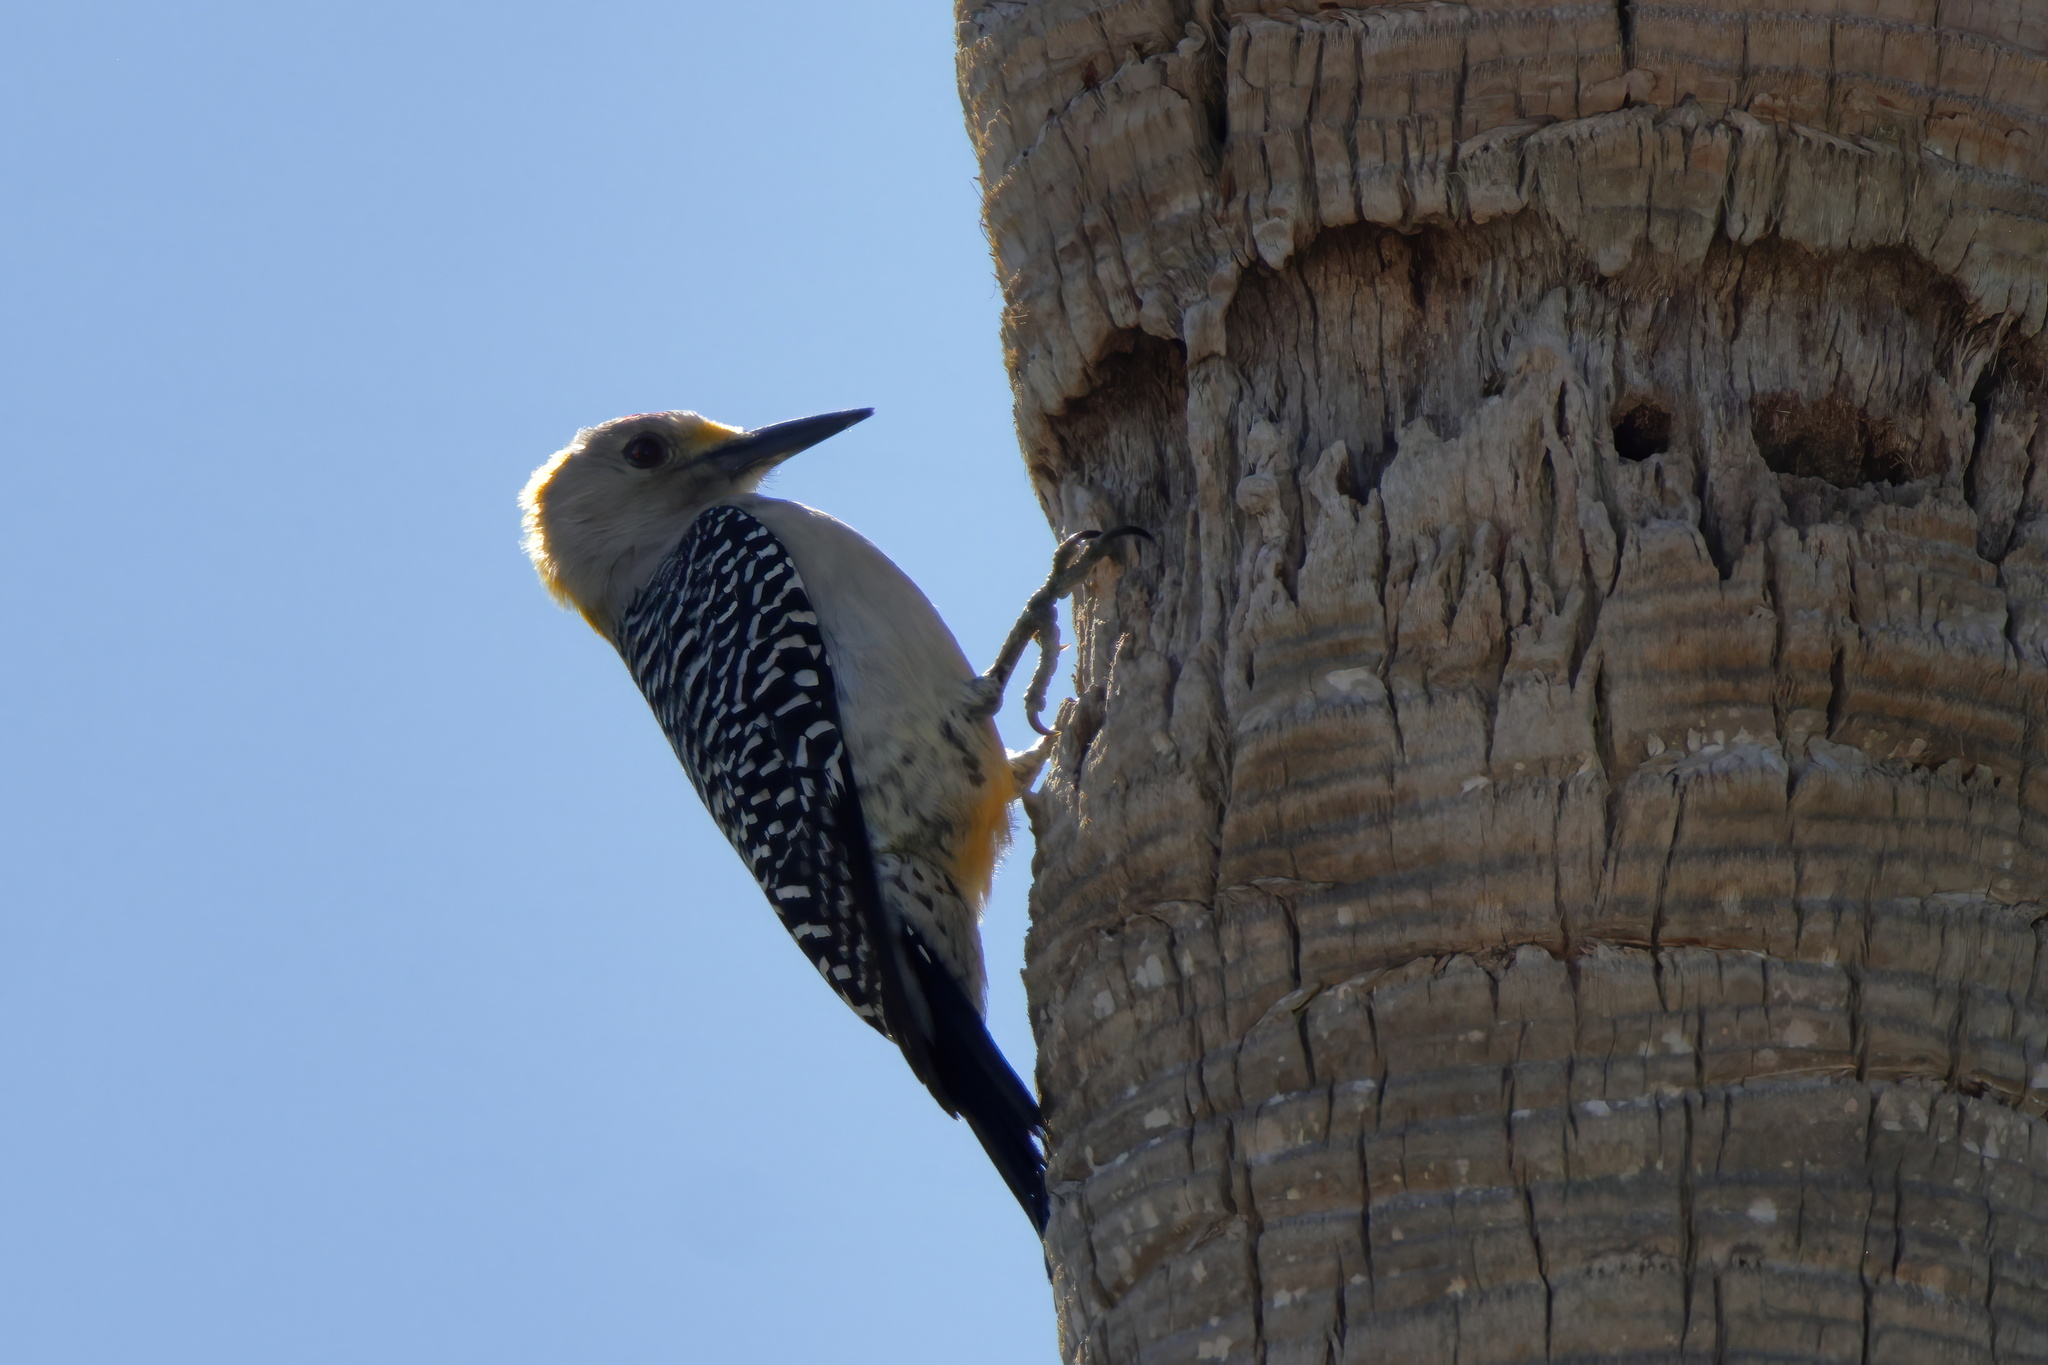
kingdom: Animalia
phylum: Chordata
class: Aves
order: Piciformes
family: Picidae
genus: Melanerpes
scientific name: Melanerpes aurifrons
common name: Golden-fronted woodpecker
